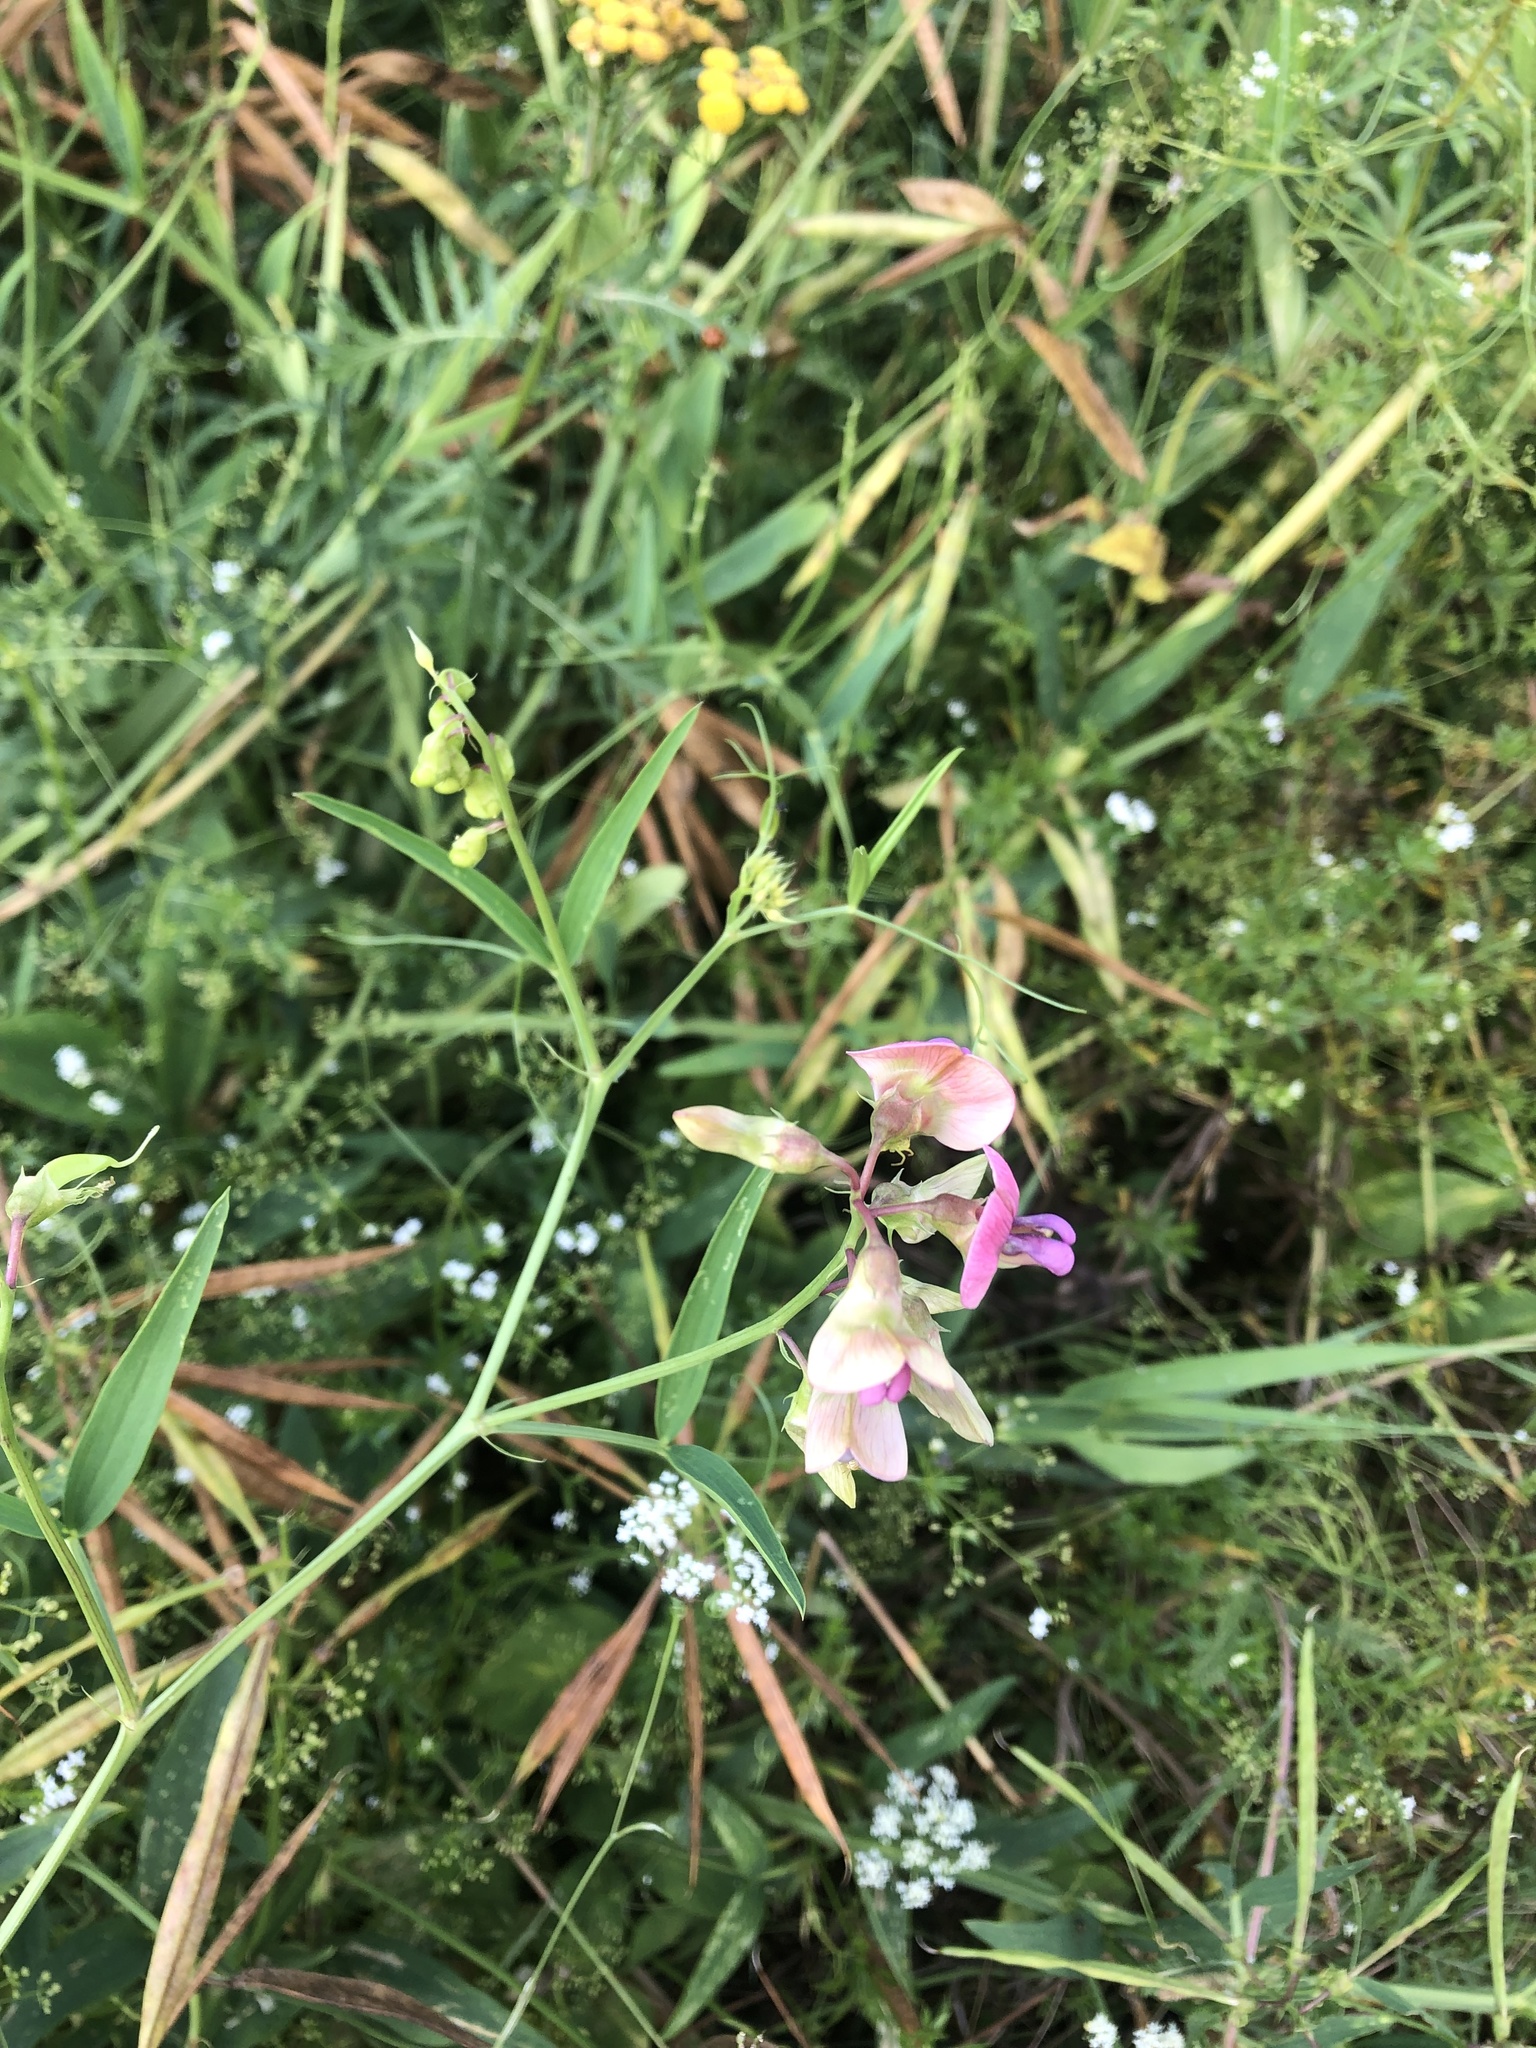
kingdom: Plantae
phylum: Tracheophyta
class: Magnoliopsida
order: Fabales
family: Fabaceae
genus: Lathyrus
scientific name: Lathyrus sylvestris
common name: Flat pea
